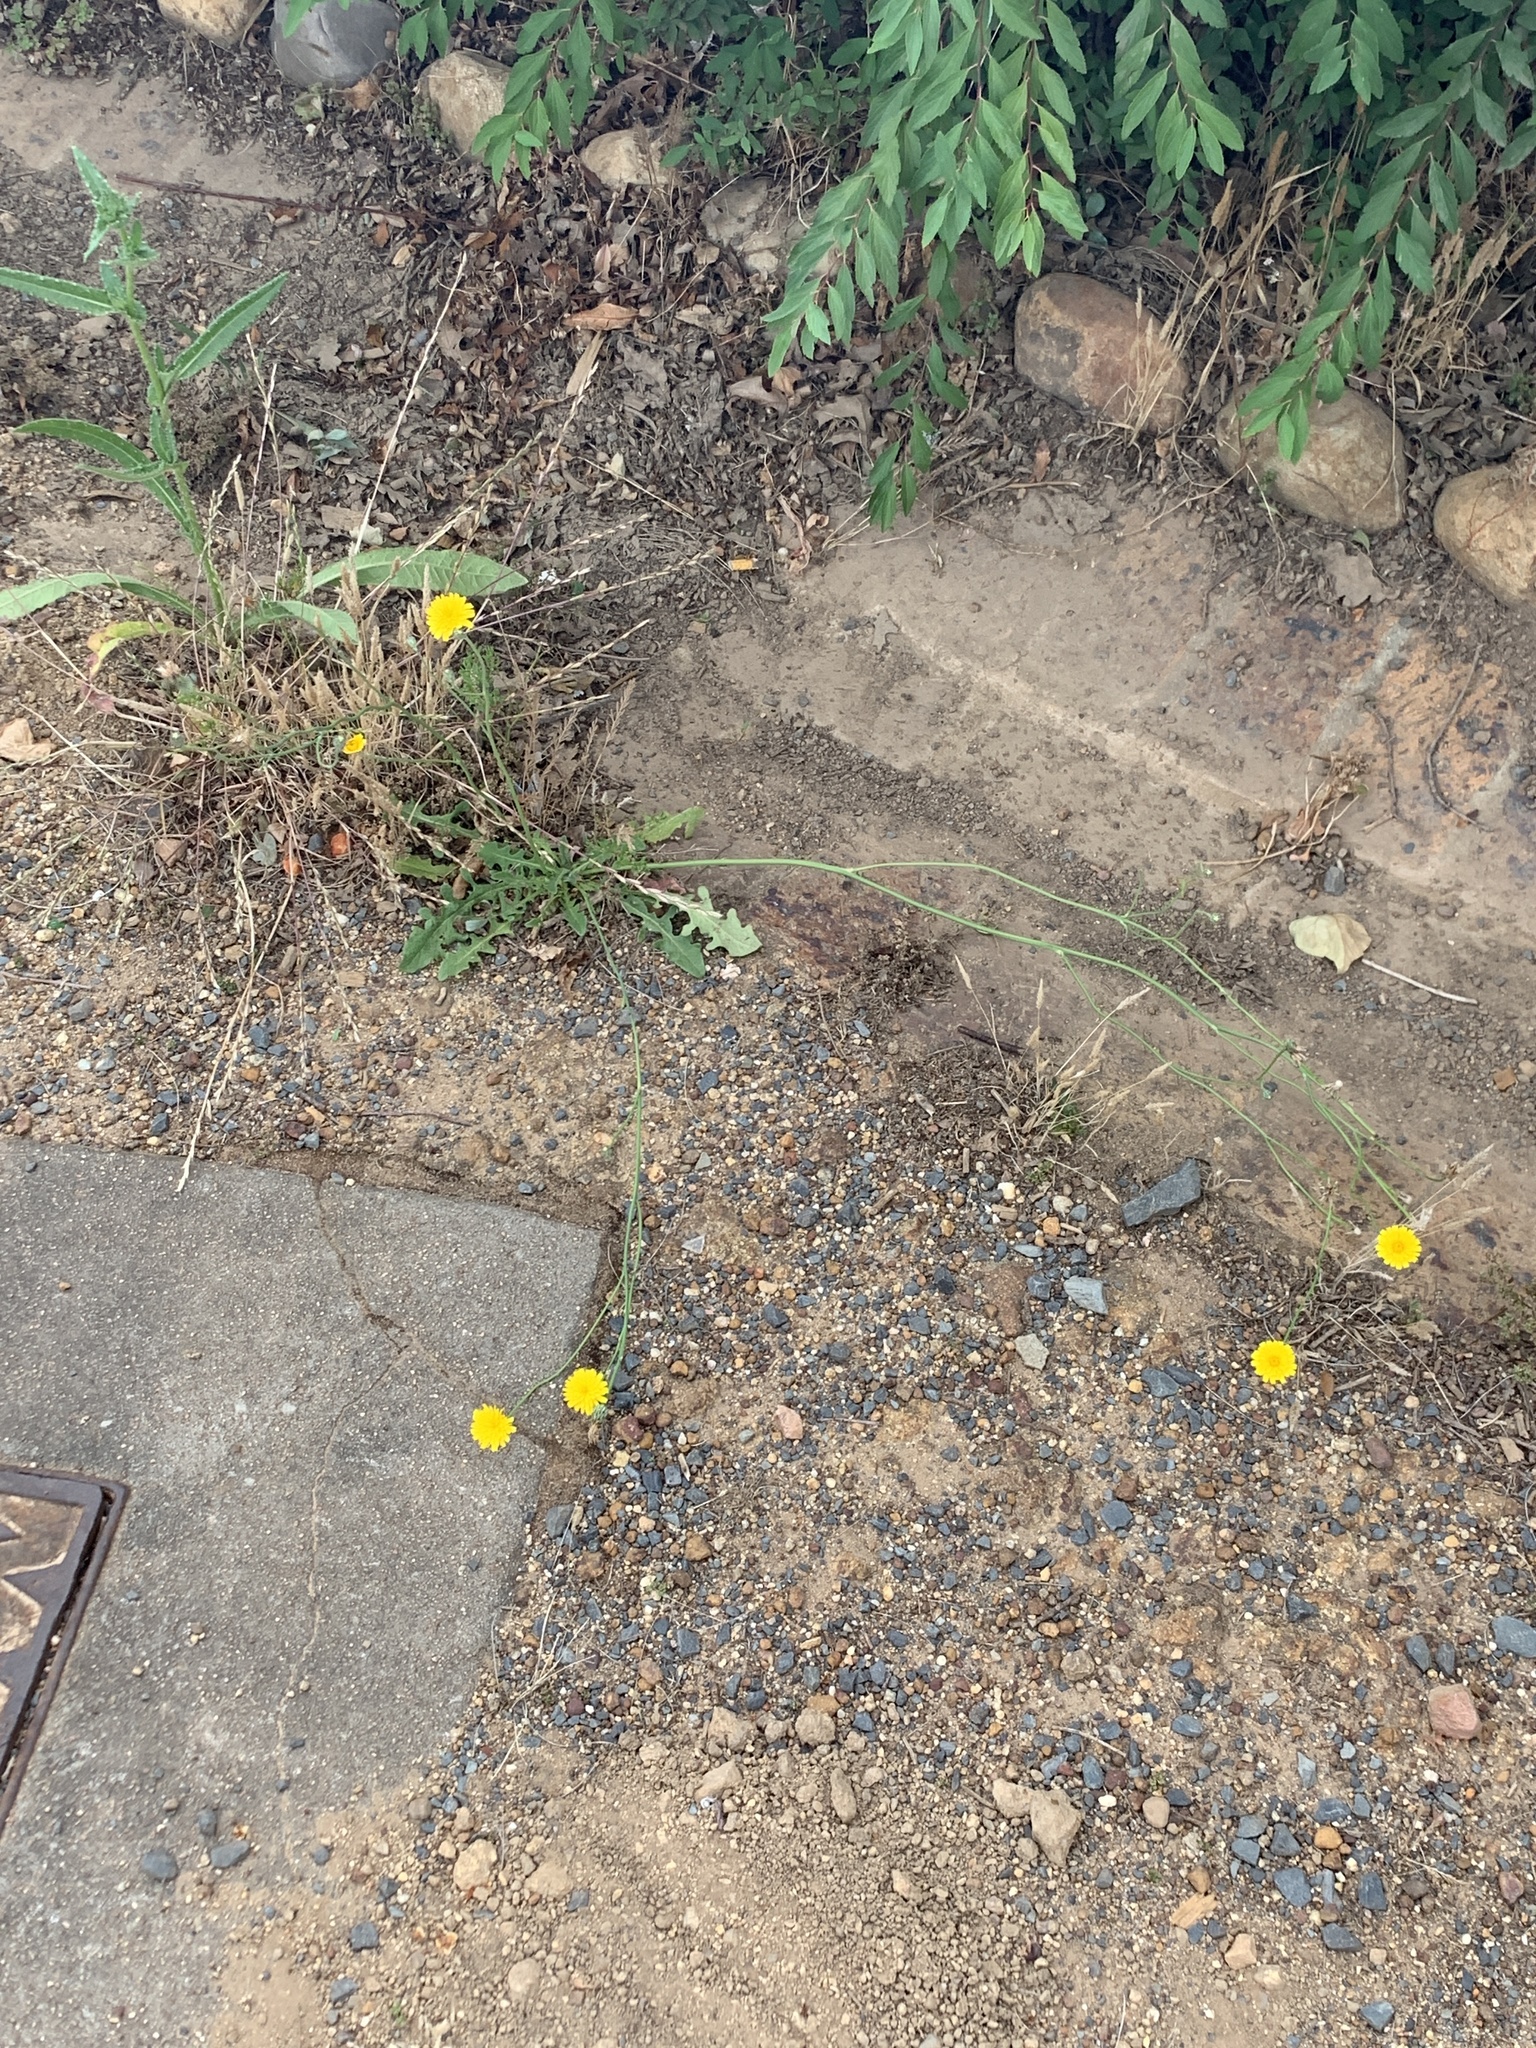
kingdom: Plantae
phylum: Tracheophyta
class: Magnoliopsida
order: Asterales
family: Asteraceae
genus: Hypochaeris
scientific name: Hypochaeris radicata
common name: Flatweed
